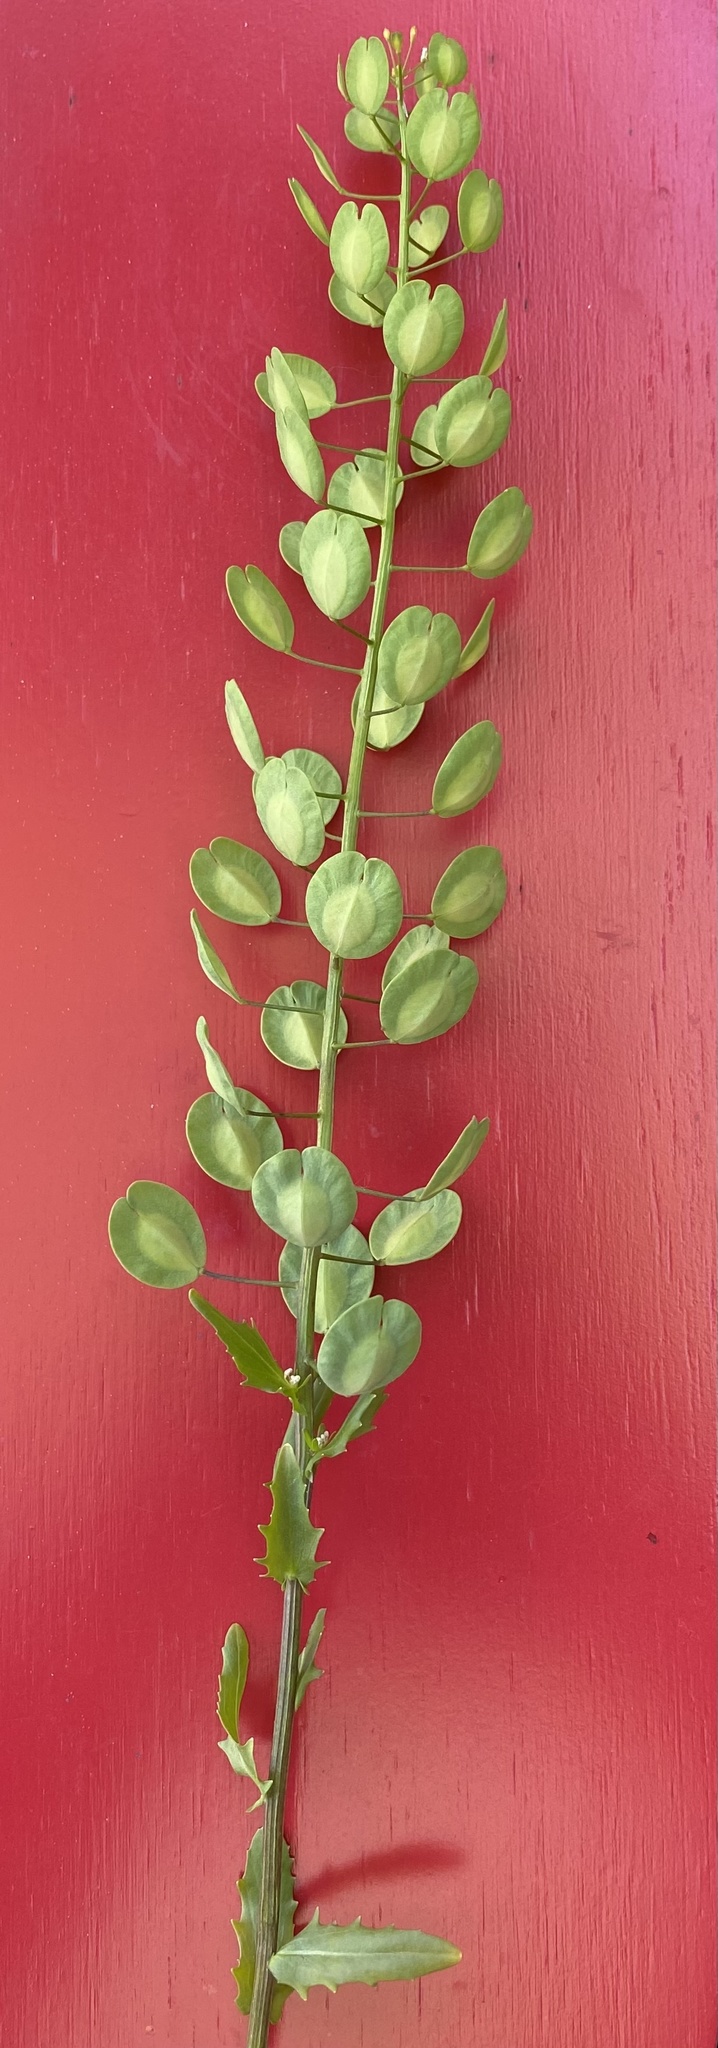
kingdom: Plantae
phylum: Tracheophyta
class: Magnoliopsida
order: Brassicales
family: Brassicaceae
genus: Thlaspi
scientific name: Thlaspi arvense
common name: Field pennycress
